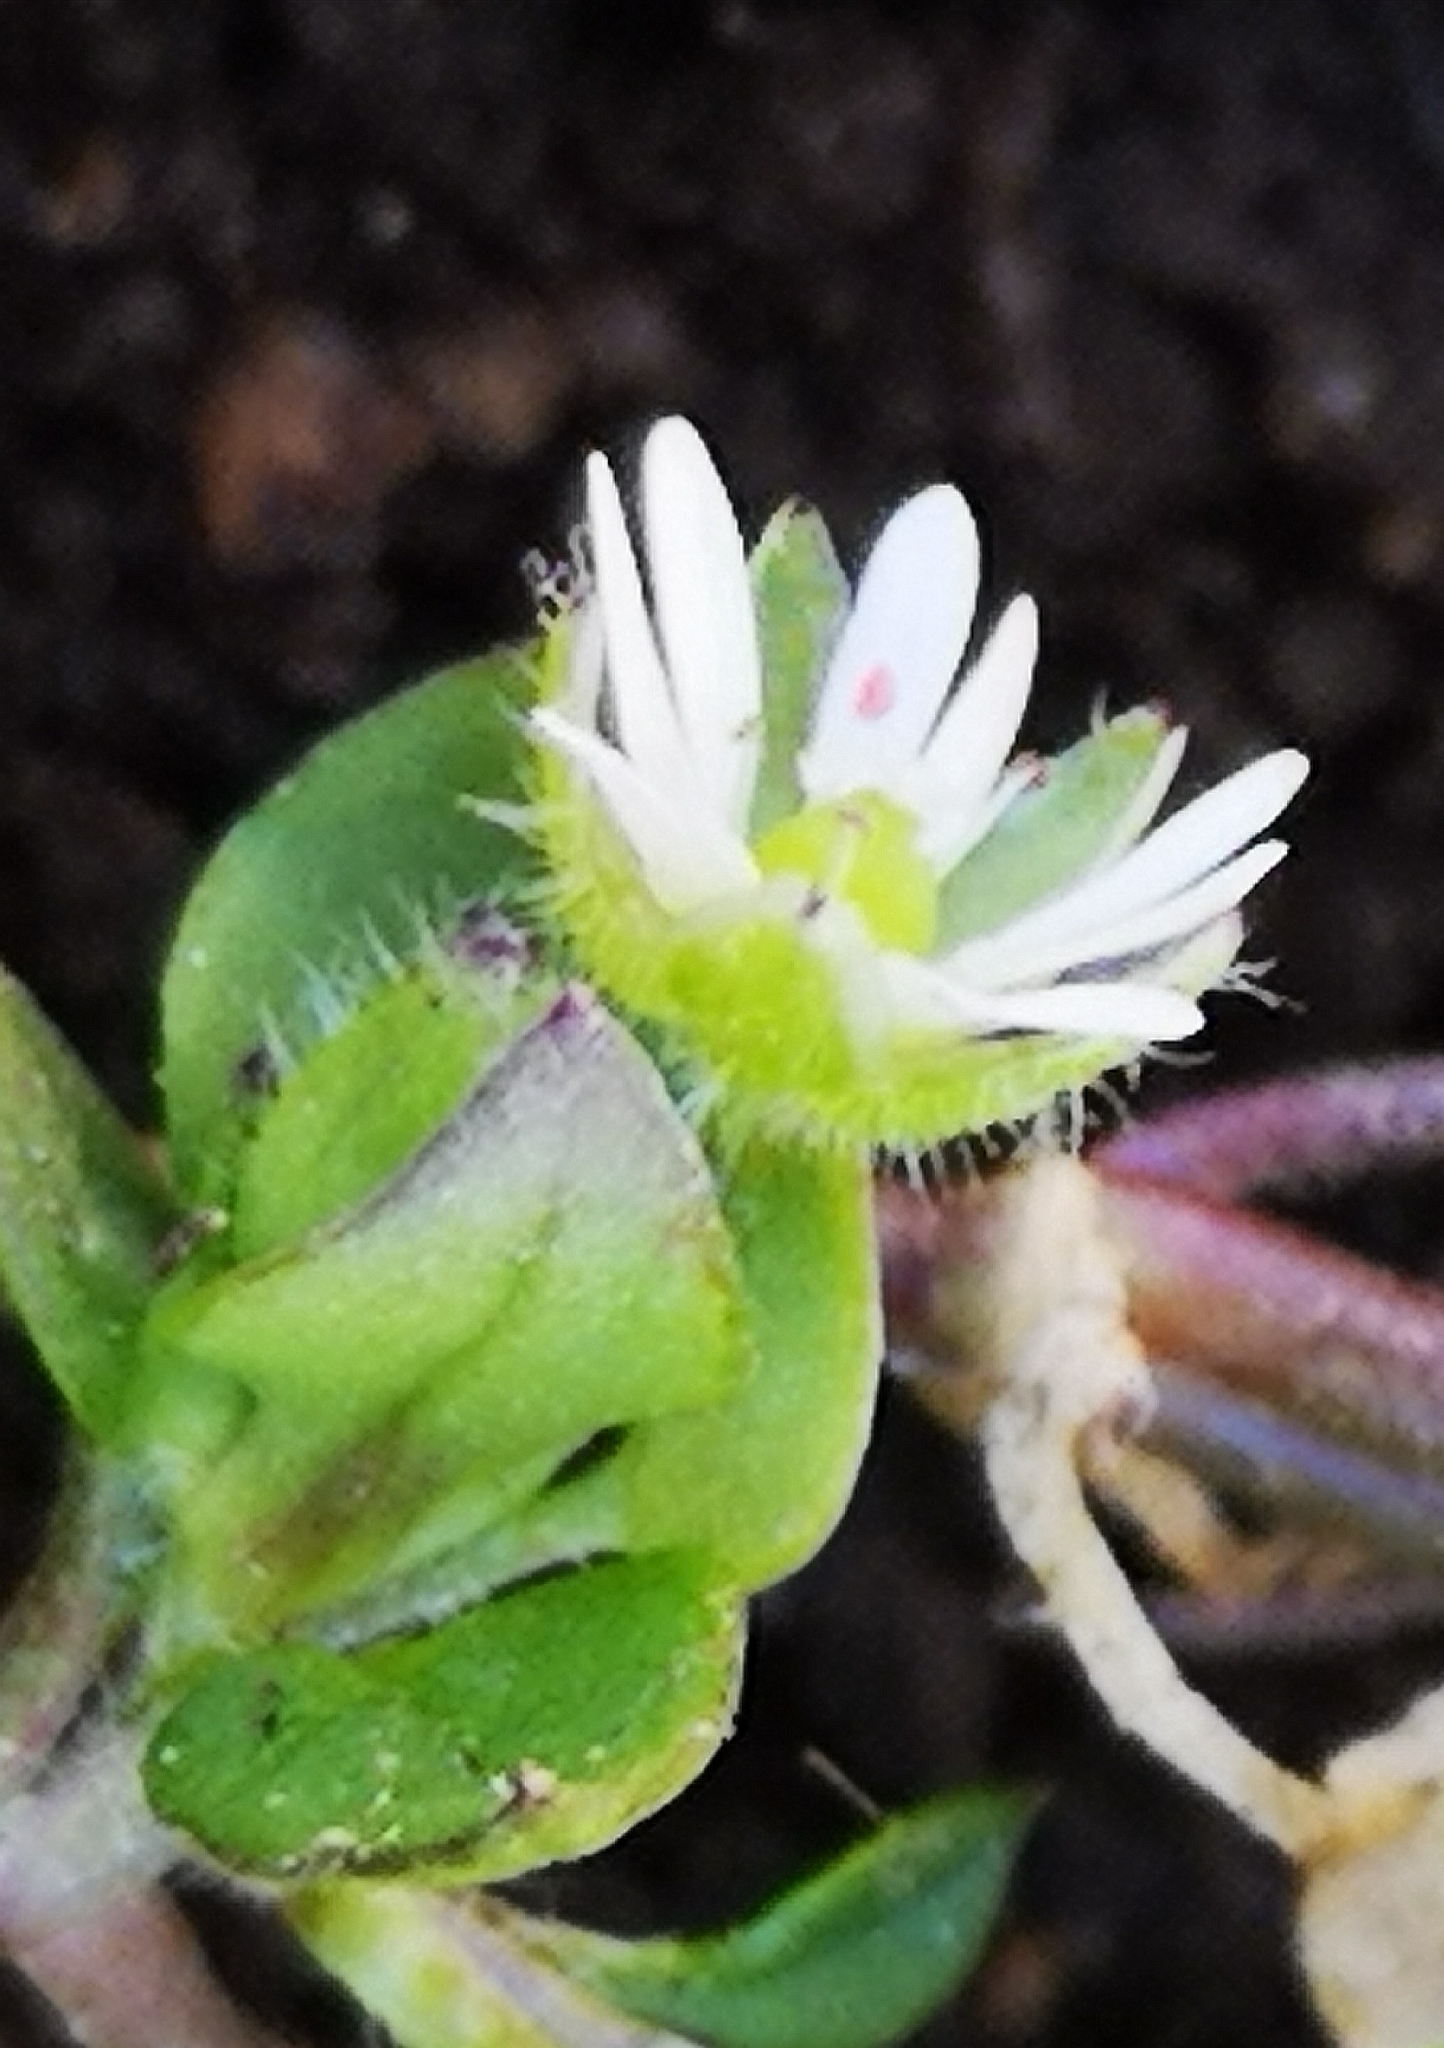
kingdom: Plantae
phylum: Tracheophyta
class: Magnoliopsida
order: Caryophyllales
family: Caryophyllaceae
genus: Stellaria
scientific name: Stellaria media
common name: Common chickweed
